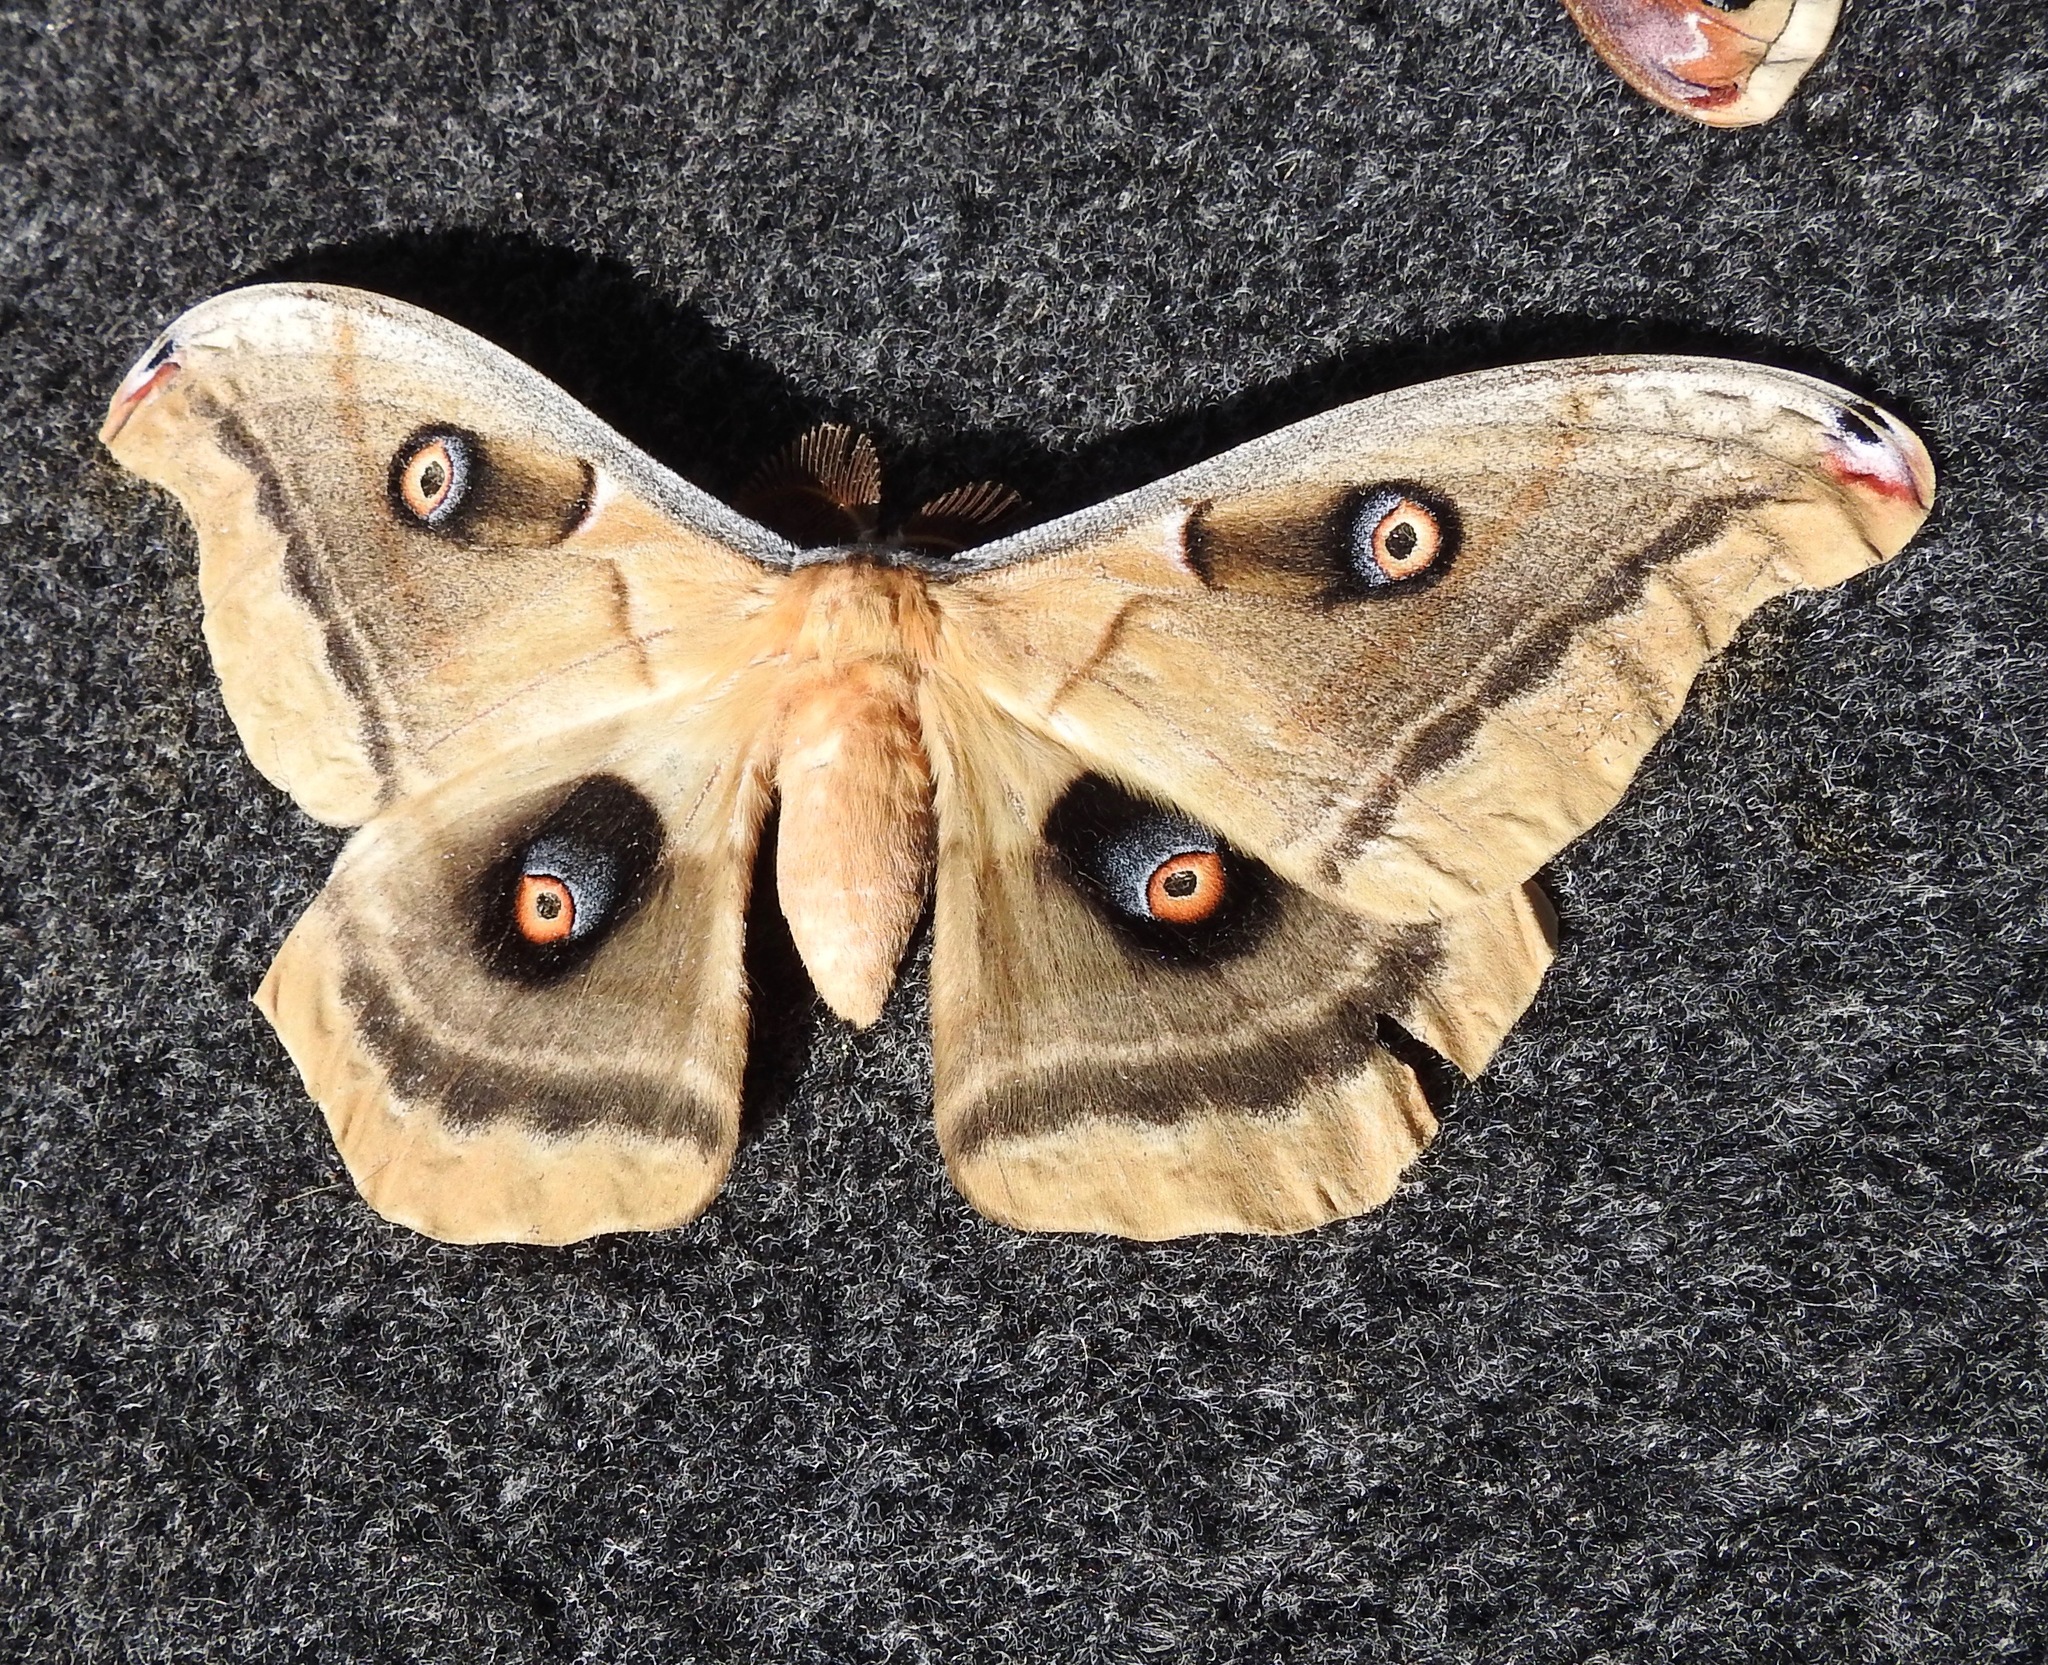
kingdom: Animalia
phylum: Arthropoda
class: Insecta
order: Lepidoptera
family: Saturniidae
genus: Antheraea
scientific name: Antheraea oculea
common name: Arizona polyphemus moth
